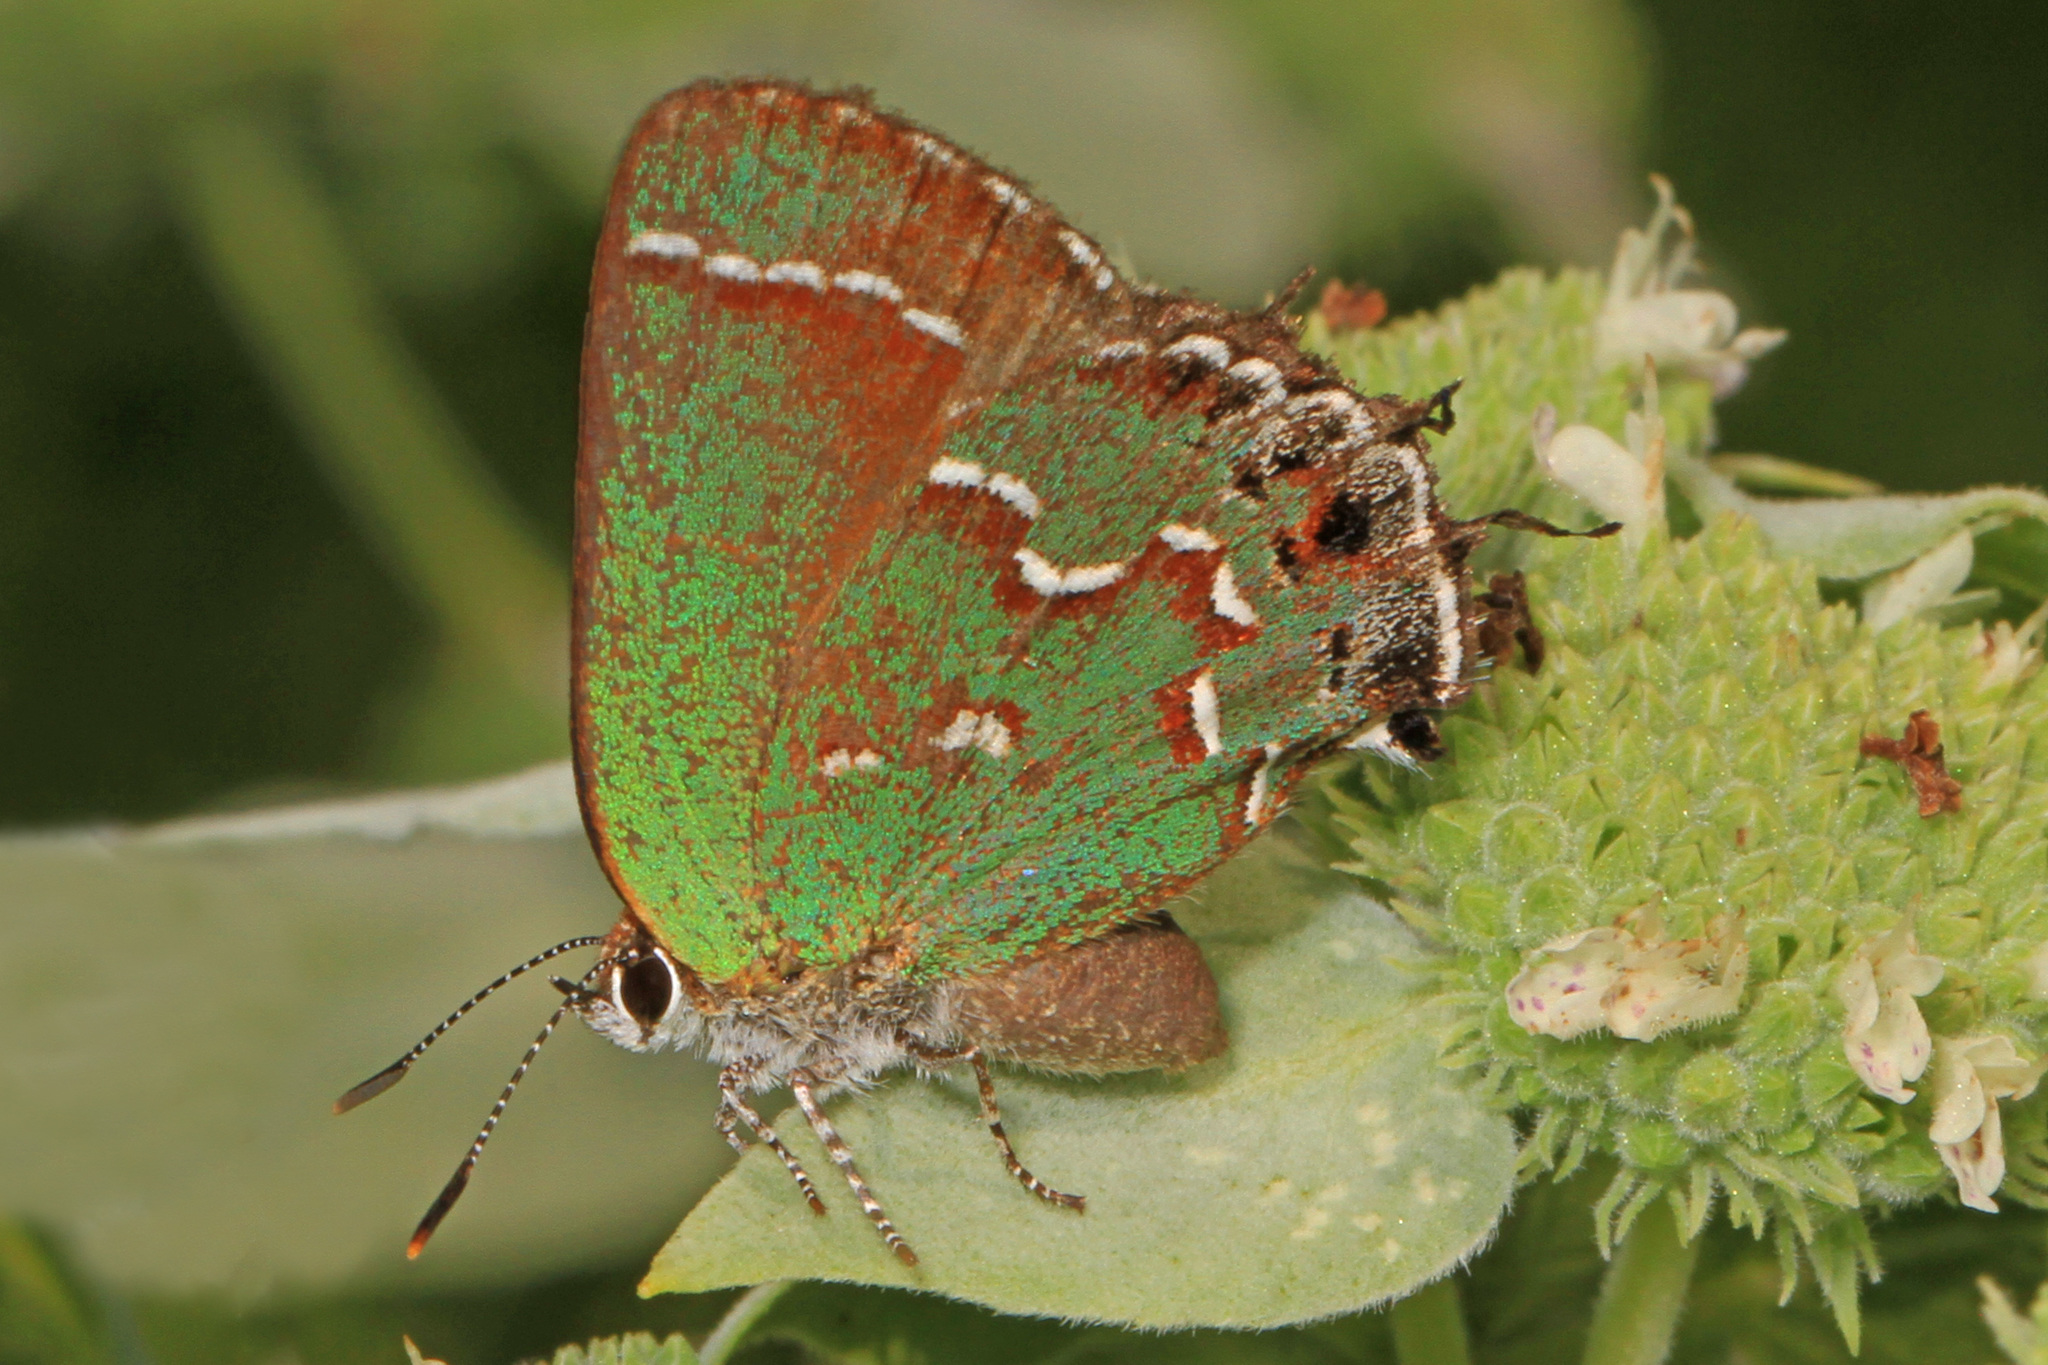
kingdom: Animalia
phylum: Arthropoda
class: Insecta
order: Lepidoptera
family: Lycaenidae
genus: Mitoura
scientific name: Mitoura gryneus
